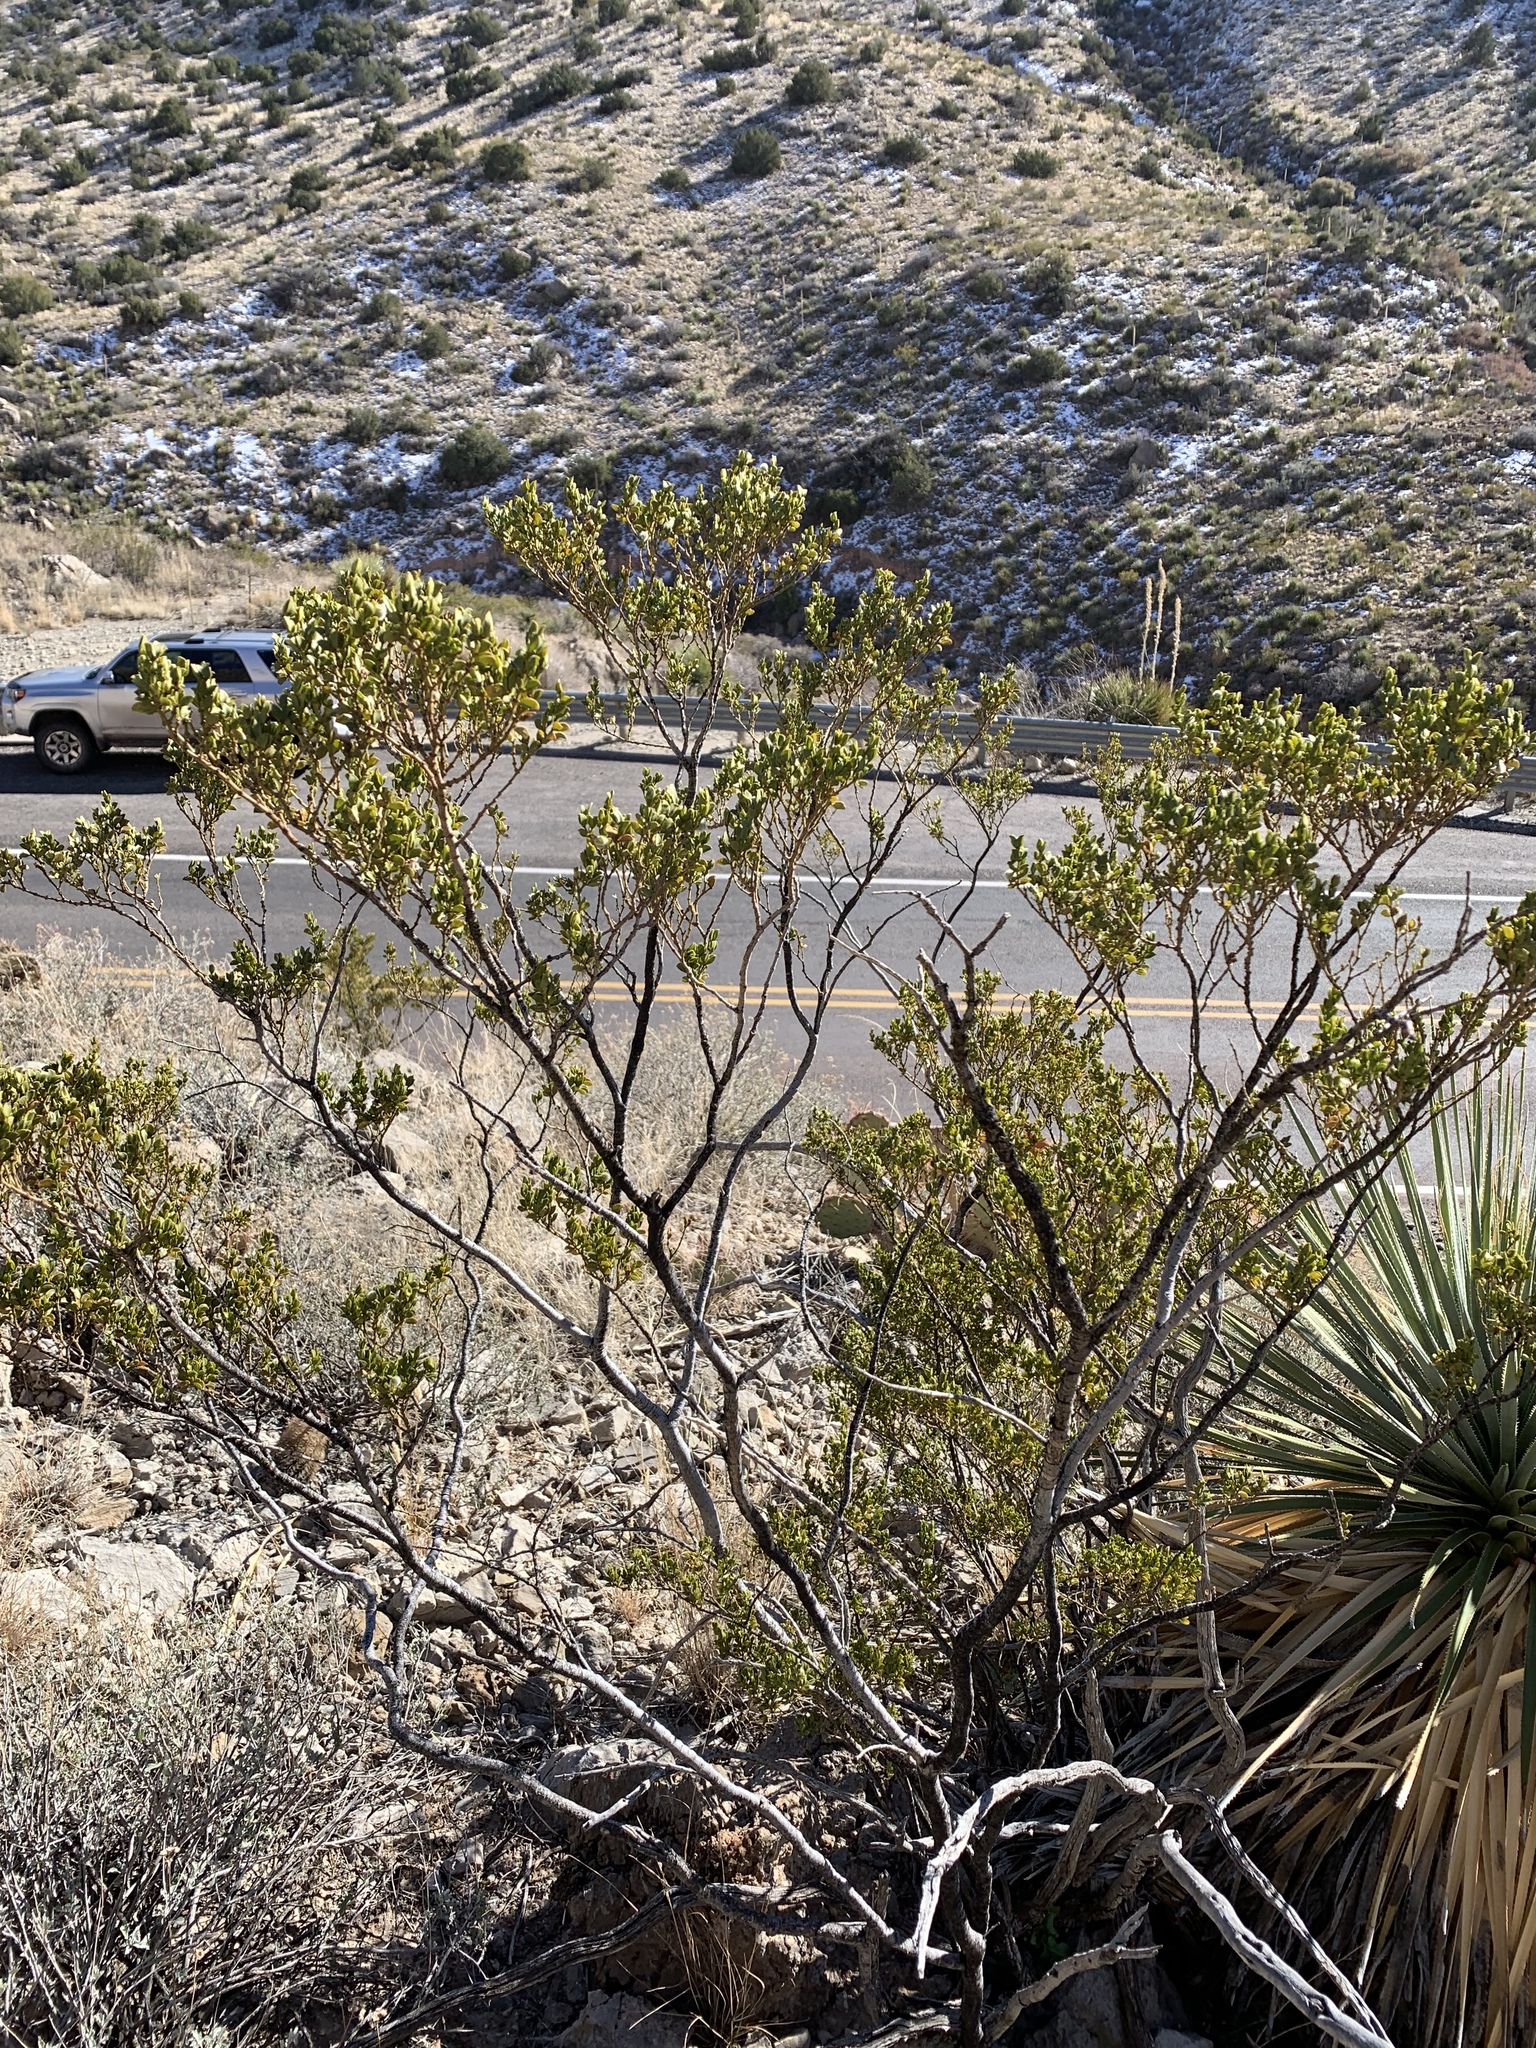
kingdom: Plantae
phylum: Tracheophyta
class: Magnoliopsida
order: Zygophyllales
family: Zygophyllaceae
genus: Larrea
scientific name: Larrea tridentata
